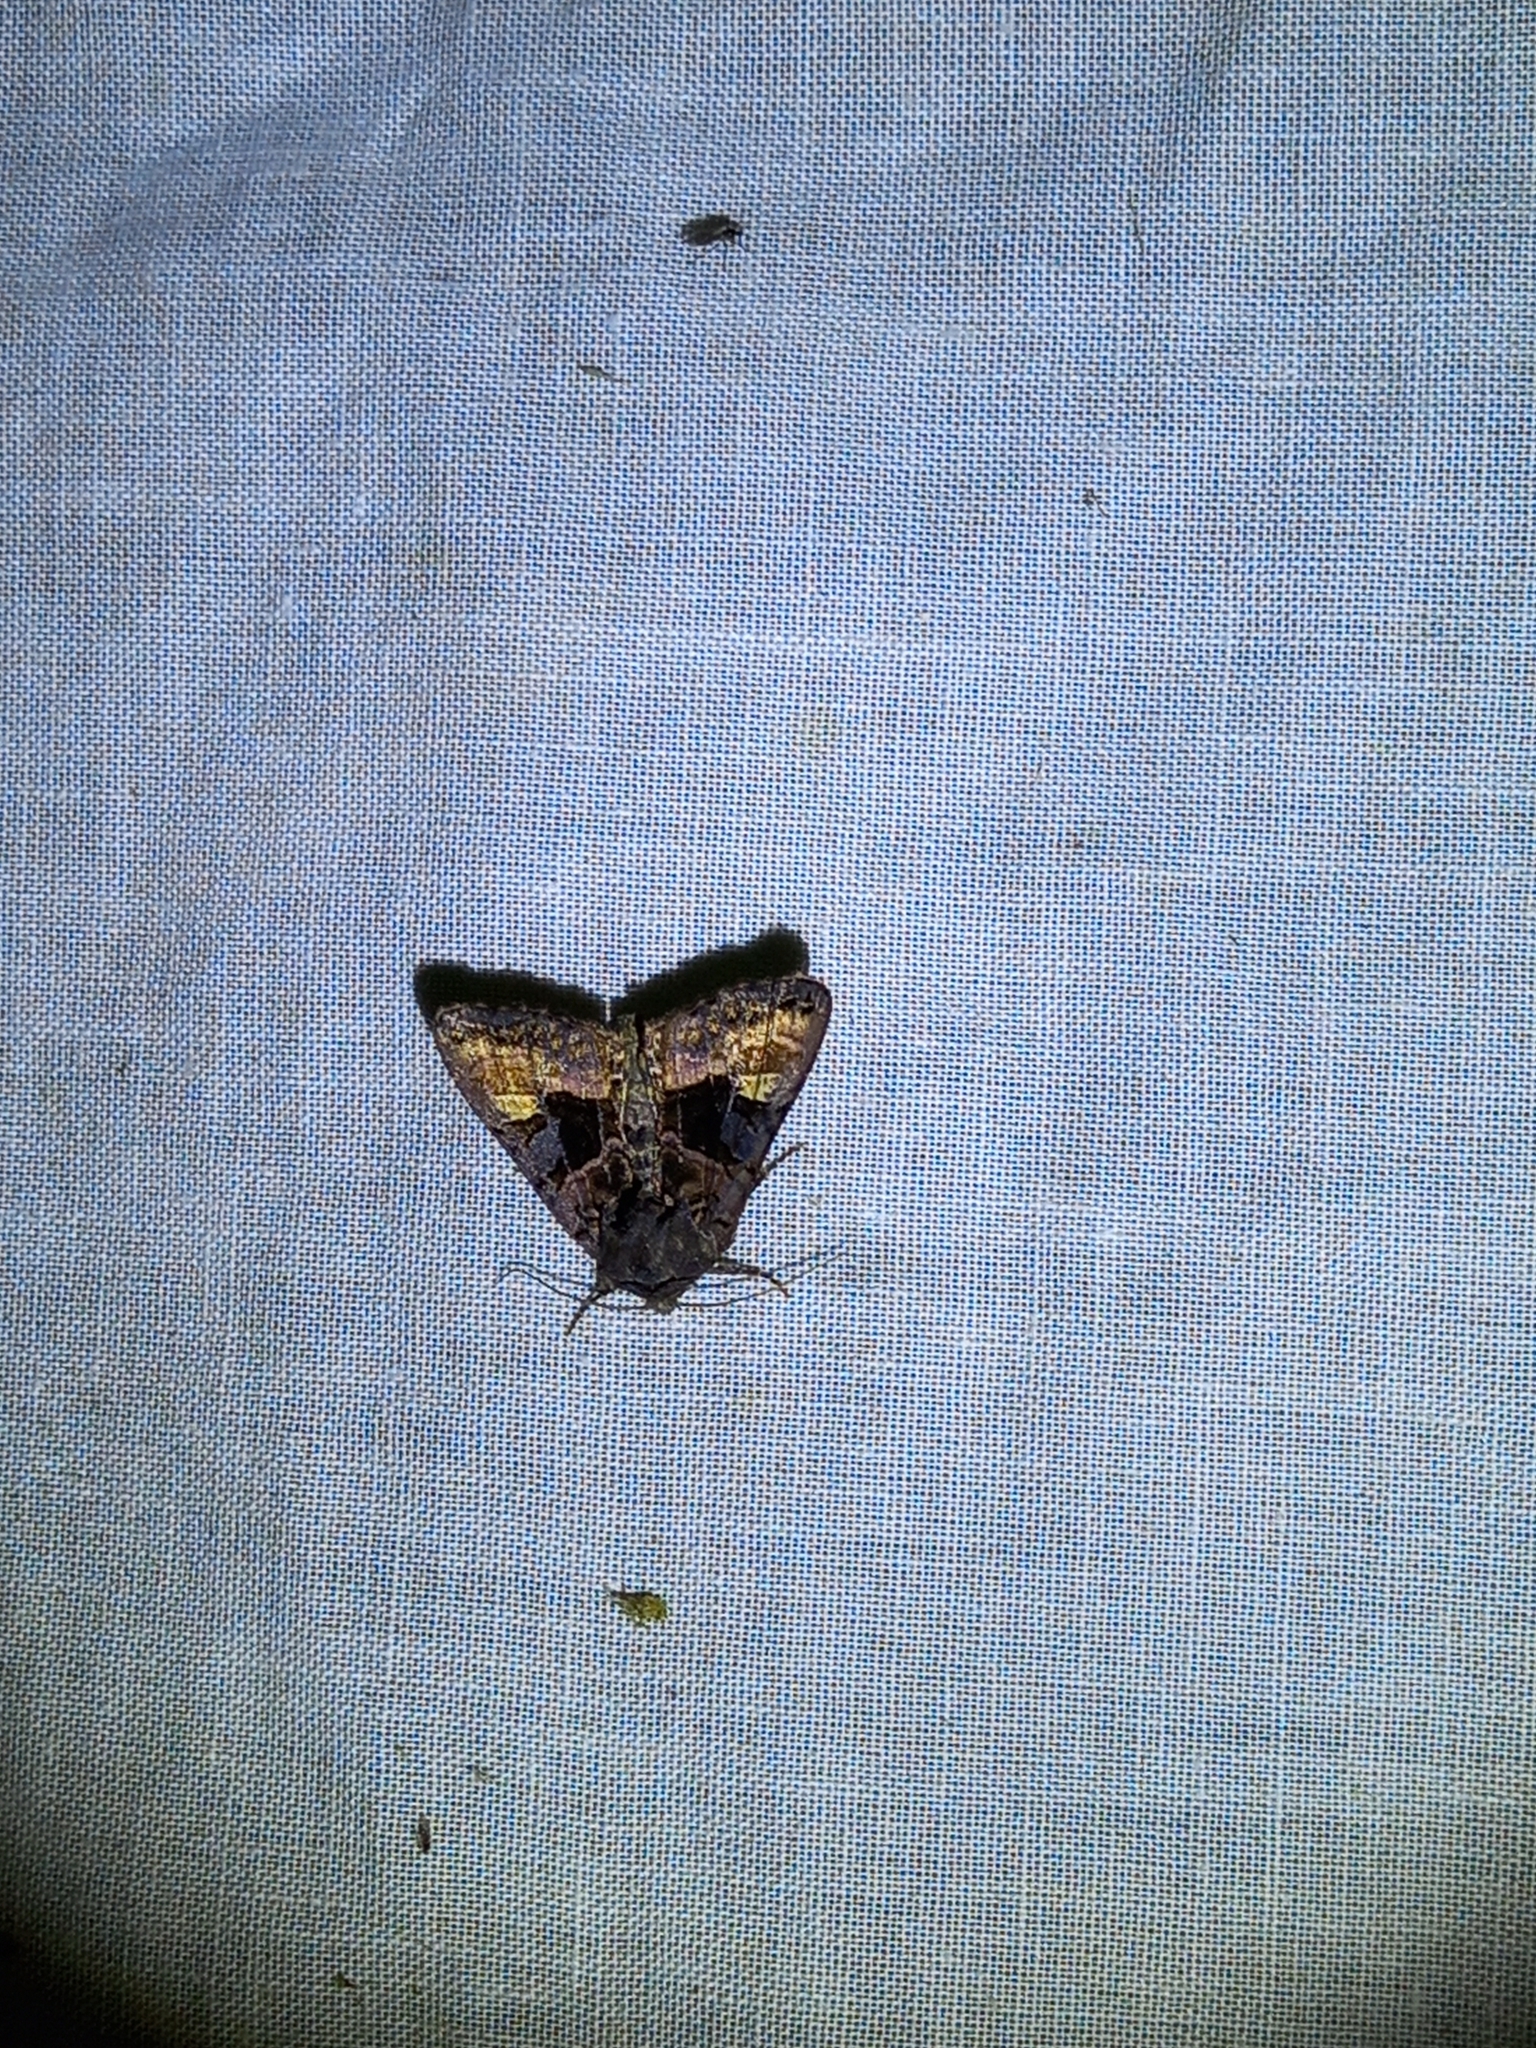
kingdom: Animalia
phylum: Arthropoda
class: Insecta
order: Lepidoptera
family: Noctuidae
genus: Euplexia
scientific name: Euplexia lucipara
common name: Small angle shades
